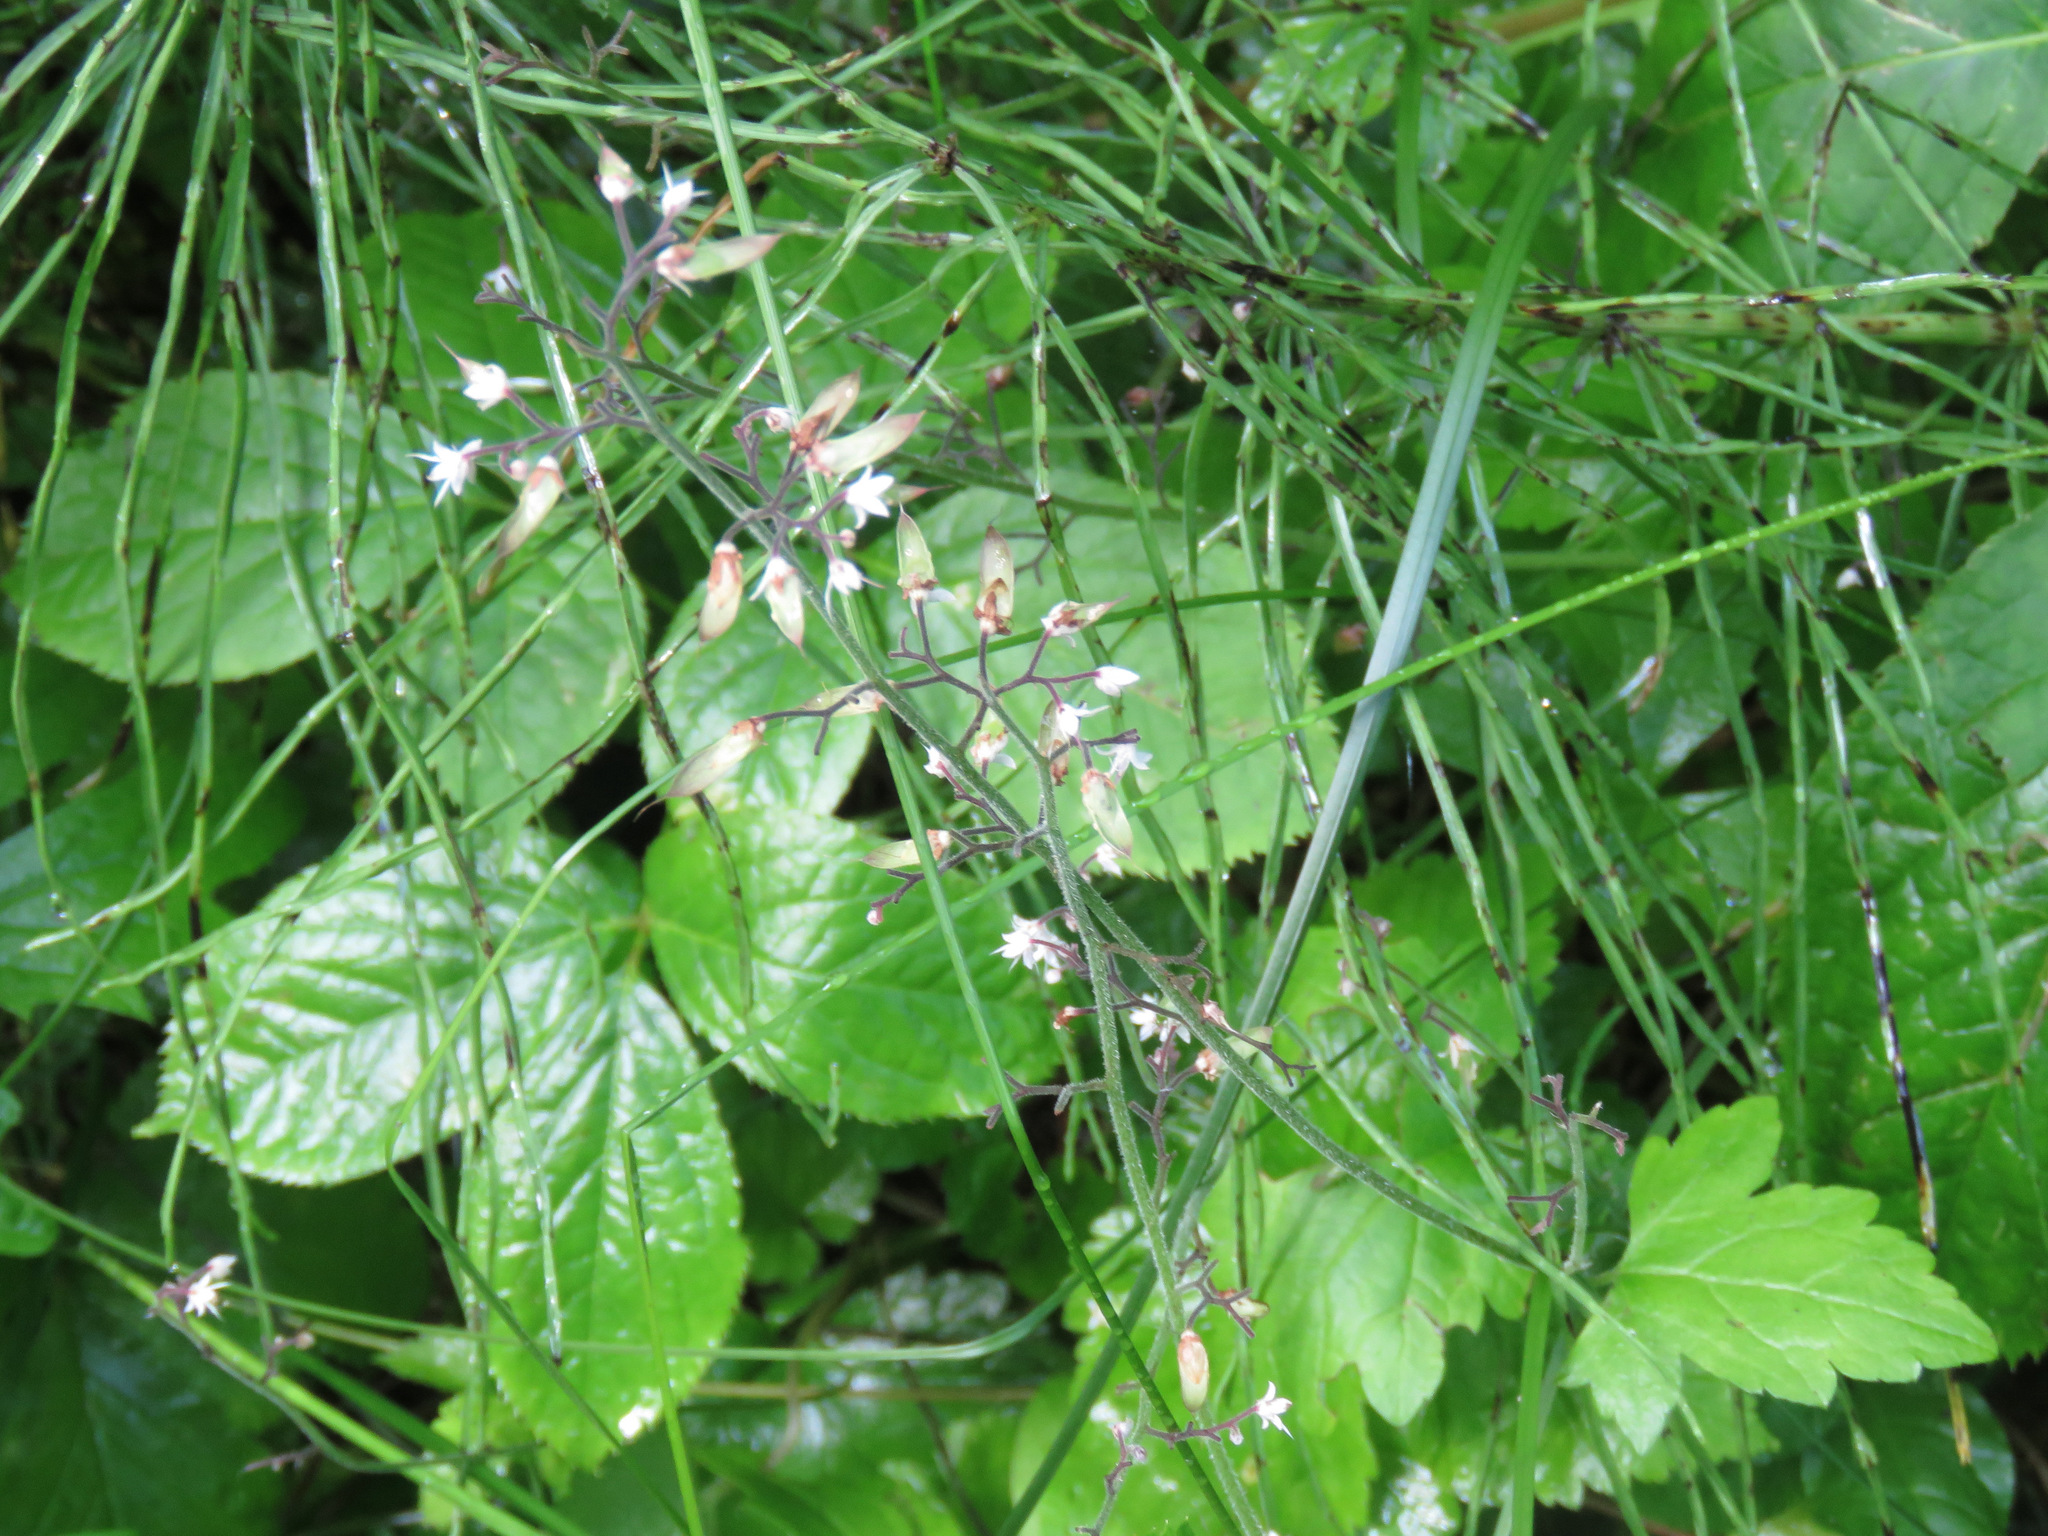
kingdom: Plantae
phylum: Tracheophyta
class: Magnoliopsida
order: Saxifragales
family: Saxifragaceae
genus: Tiarella
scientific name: Tiarella trifoliata
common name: Sugar-scoop
